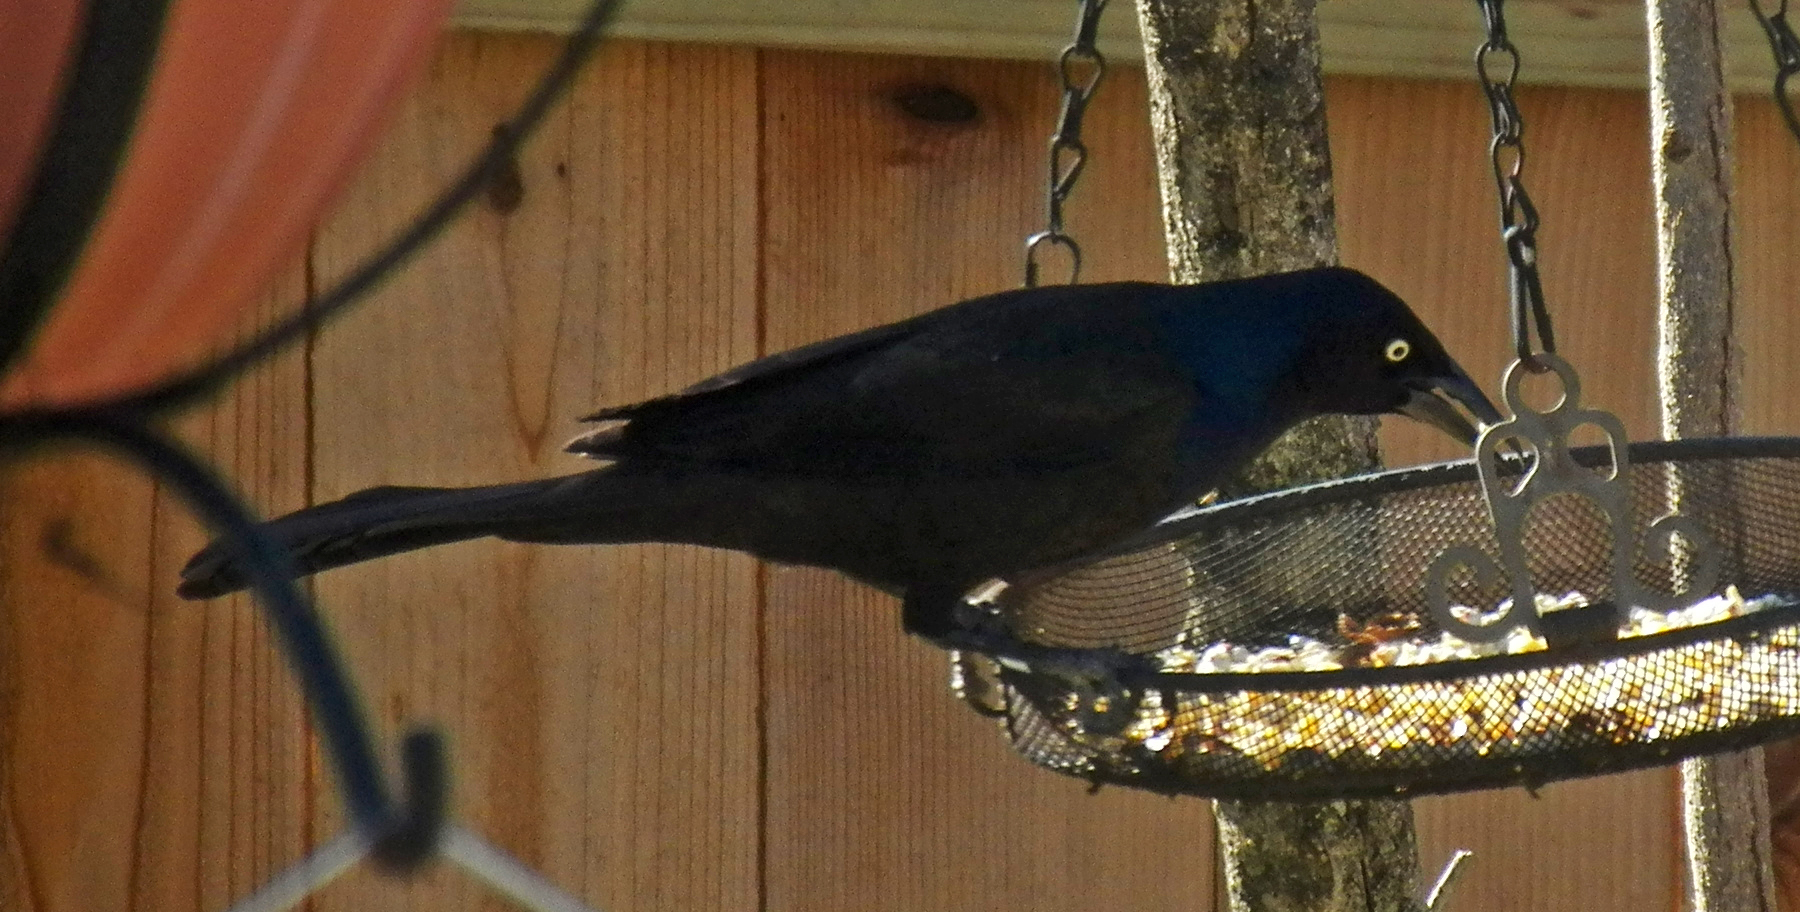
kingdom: Animalia
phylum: Chordata
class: Aves
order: Passeriformes
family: Icteridae
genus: Quiscalus
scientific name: Quiscalus quiscula
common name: Common grackle
